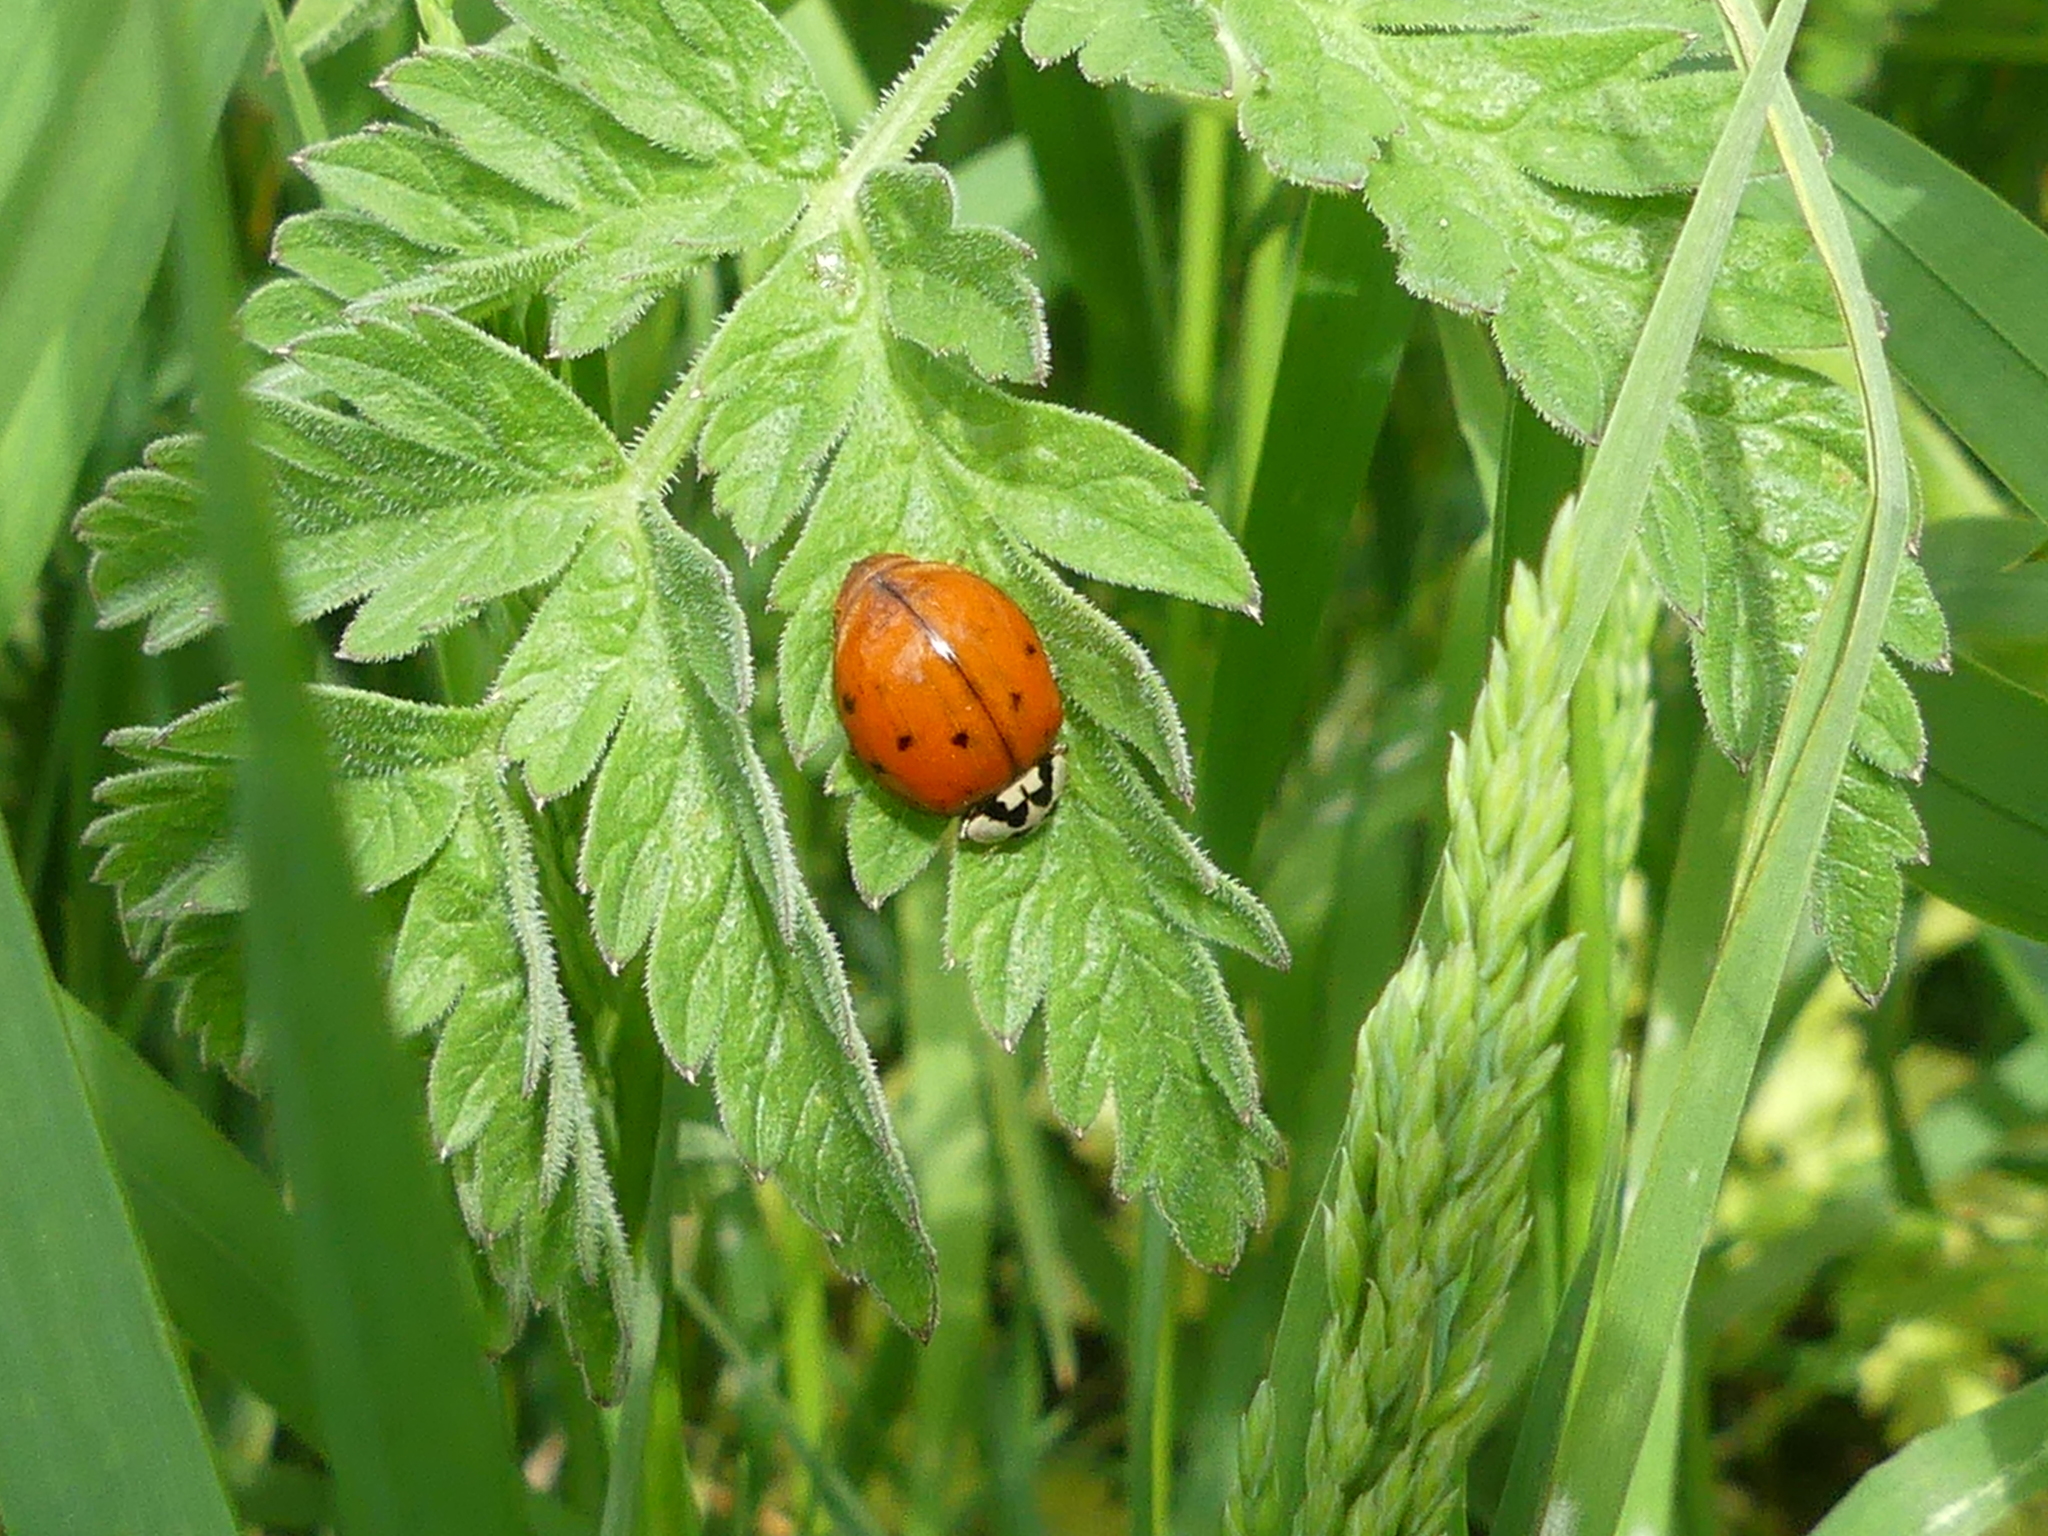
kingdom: Animalia
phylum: Arthropoda
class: Insecta
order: Coleoptera
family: Coccinellidae
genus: Harmonia
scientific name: Harmonia axyridis
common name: Harlequin ladybird
